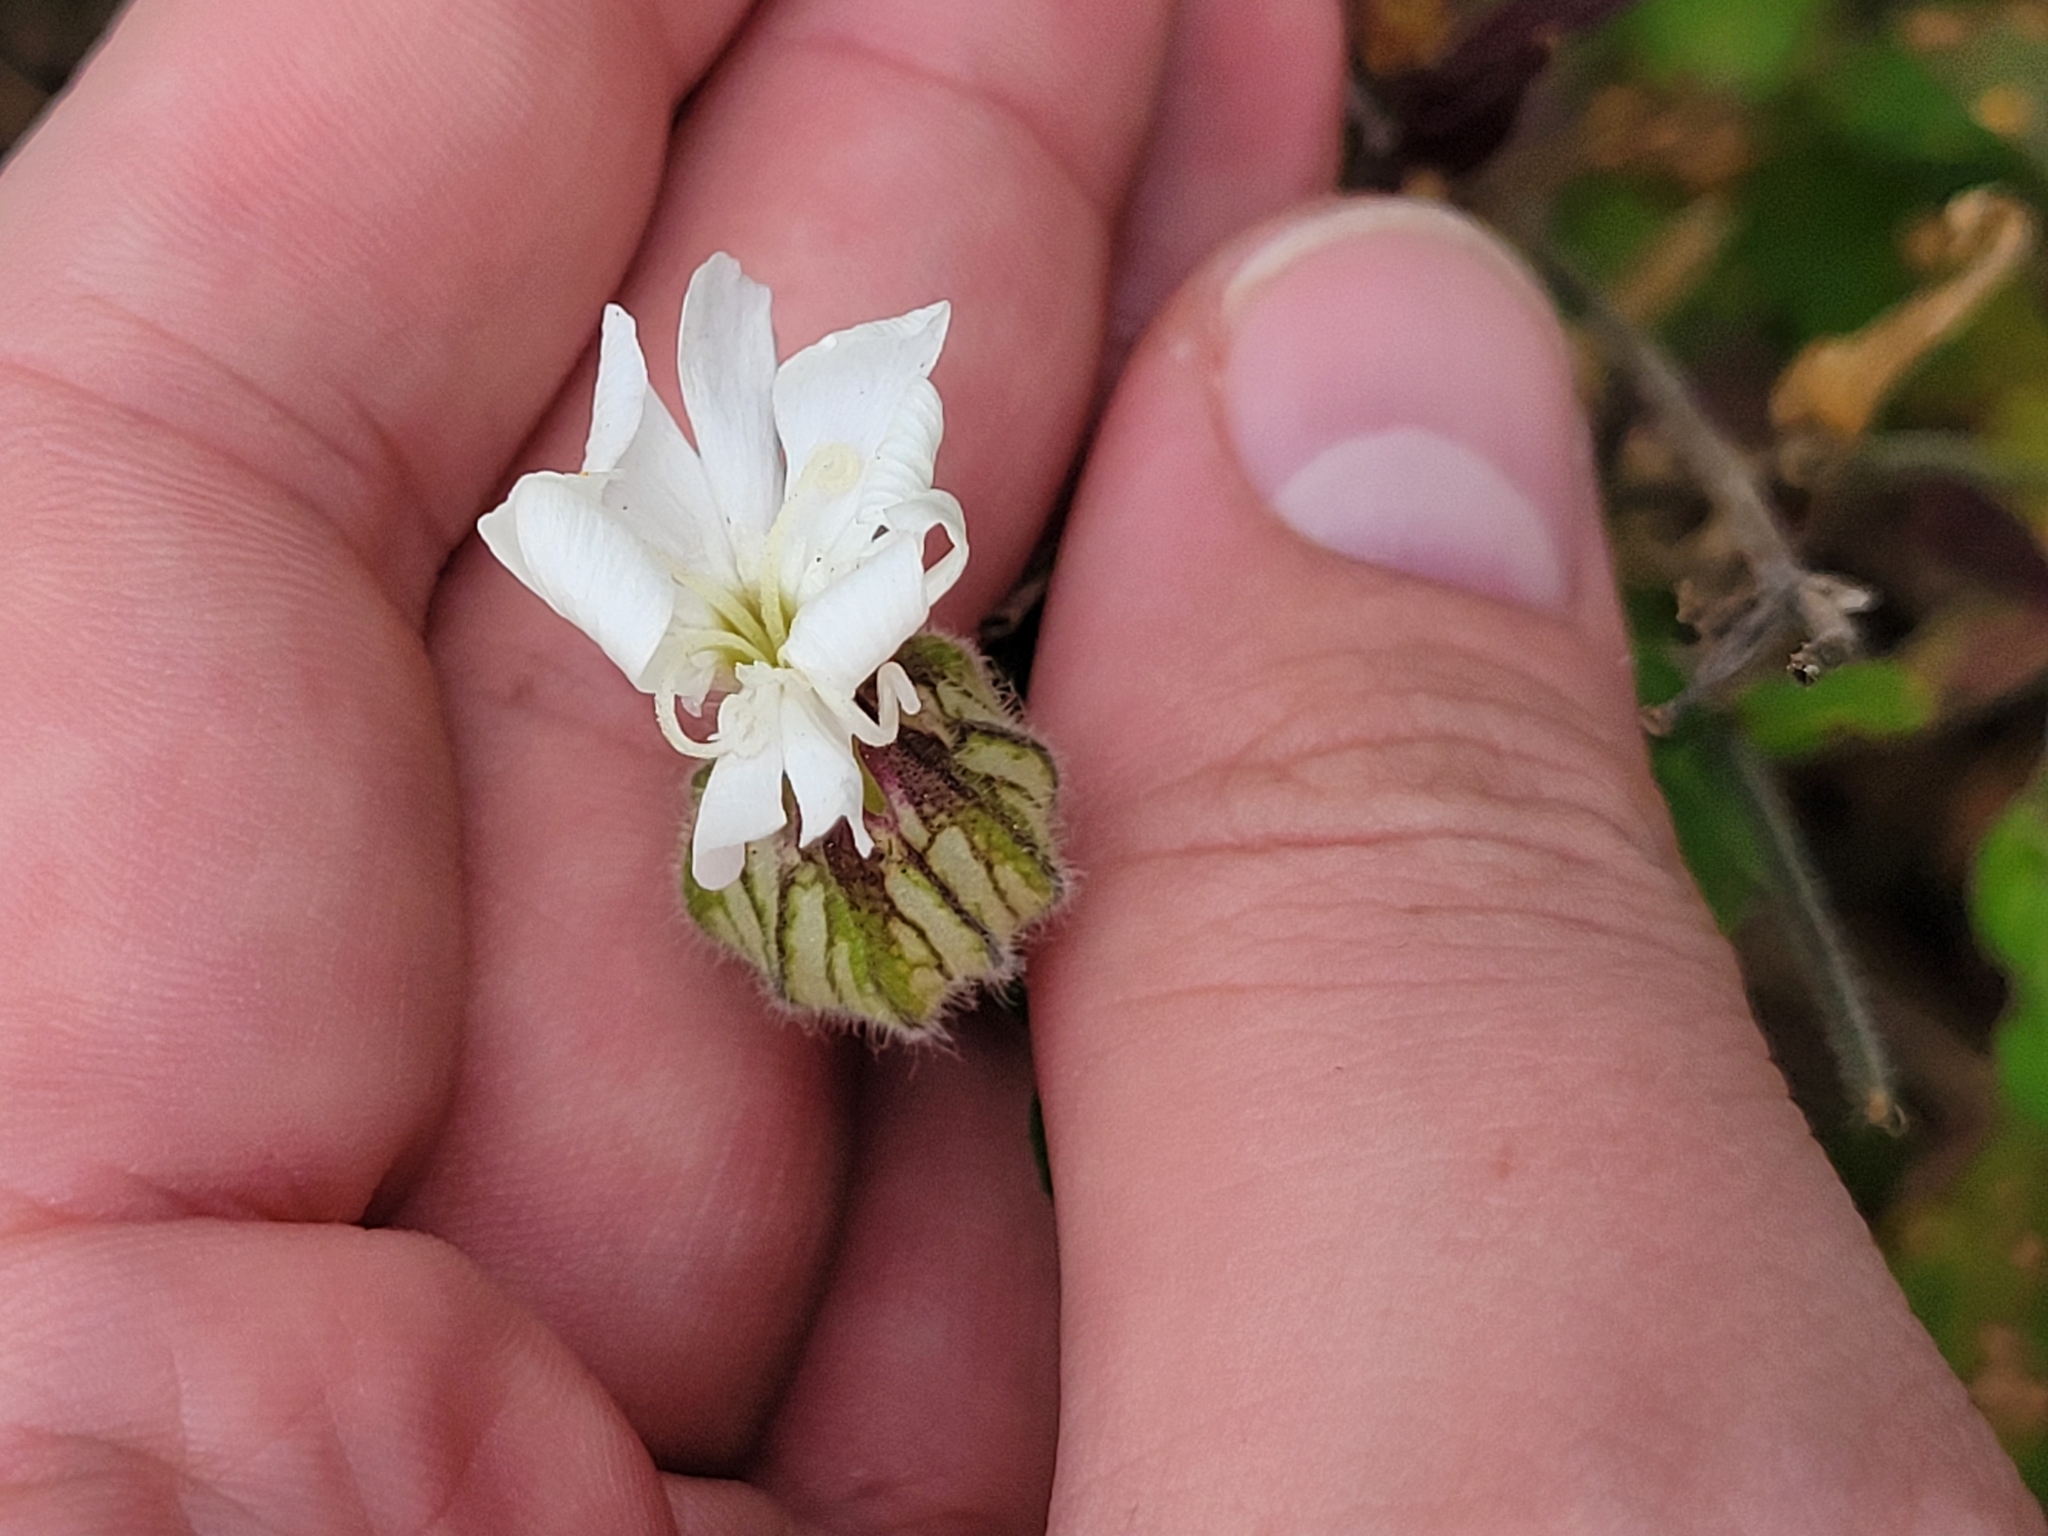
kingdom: Plantae
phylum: Tracheophyta
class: Magnoliopsida
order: Caryophyllales
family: Caryophyllaceae
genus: Silene
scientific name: Silene latifolia
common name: White campion
